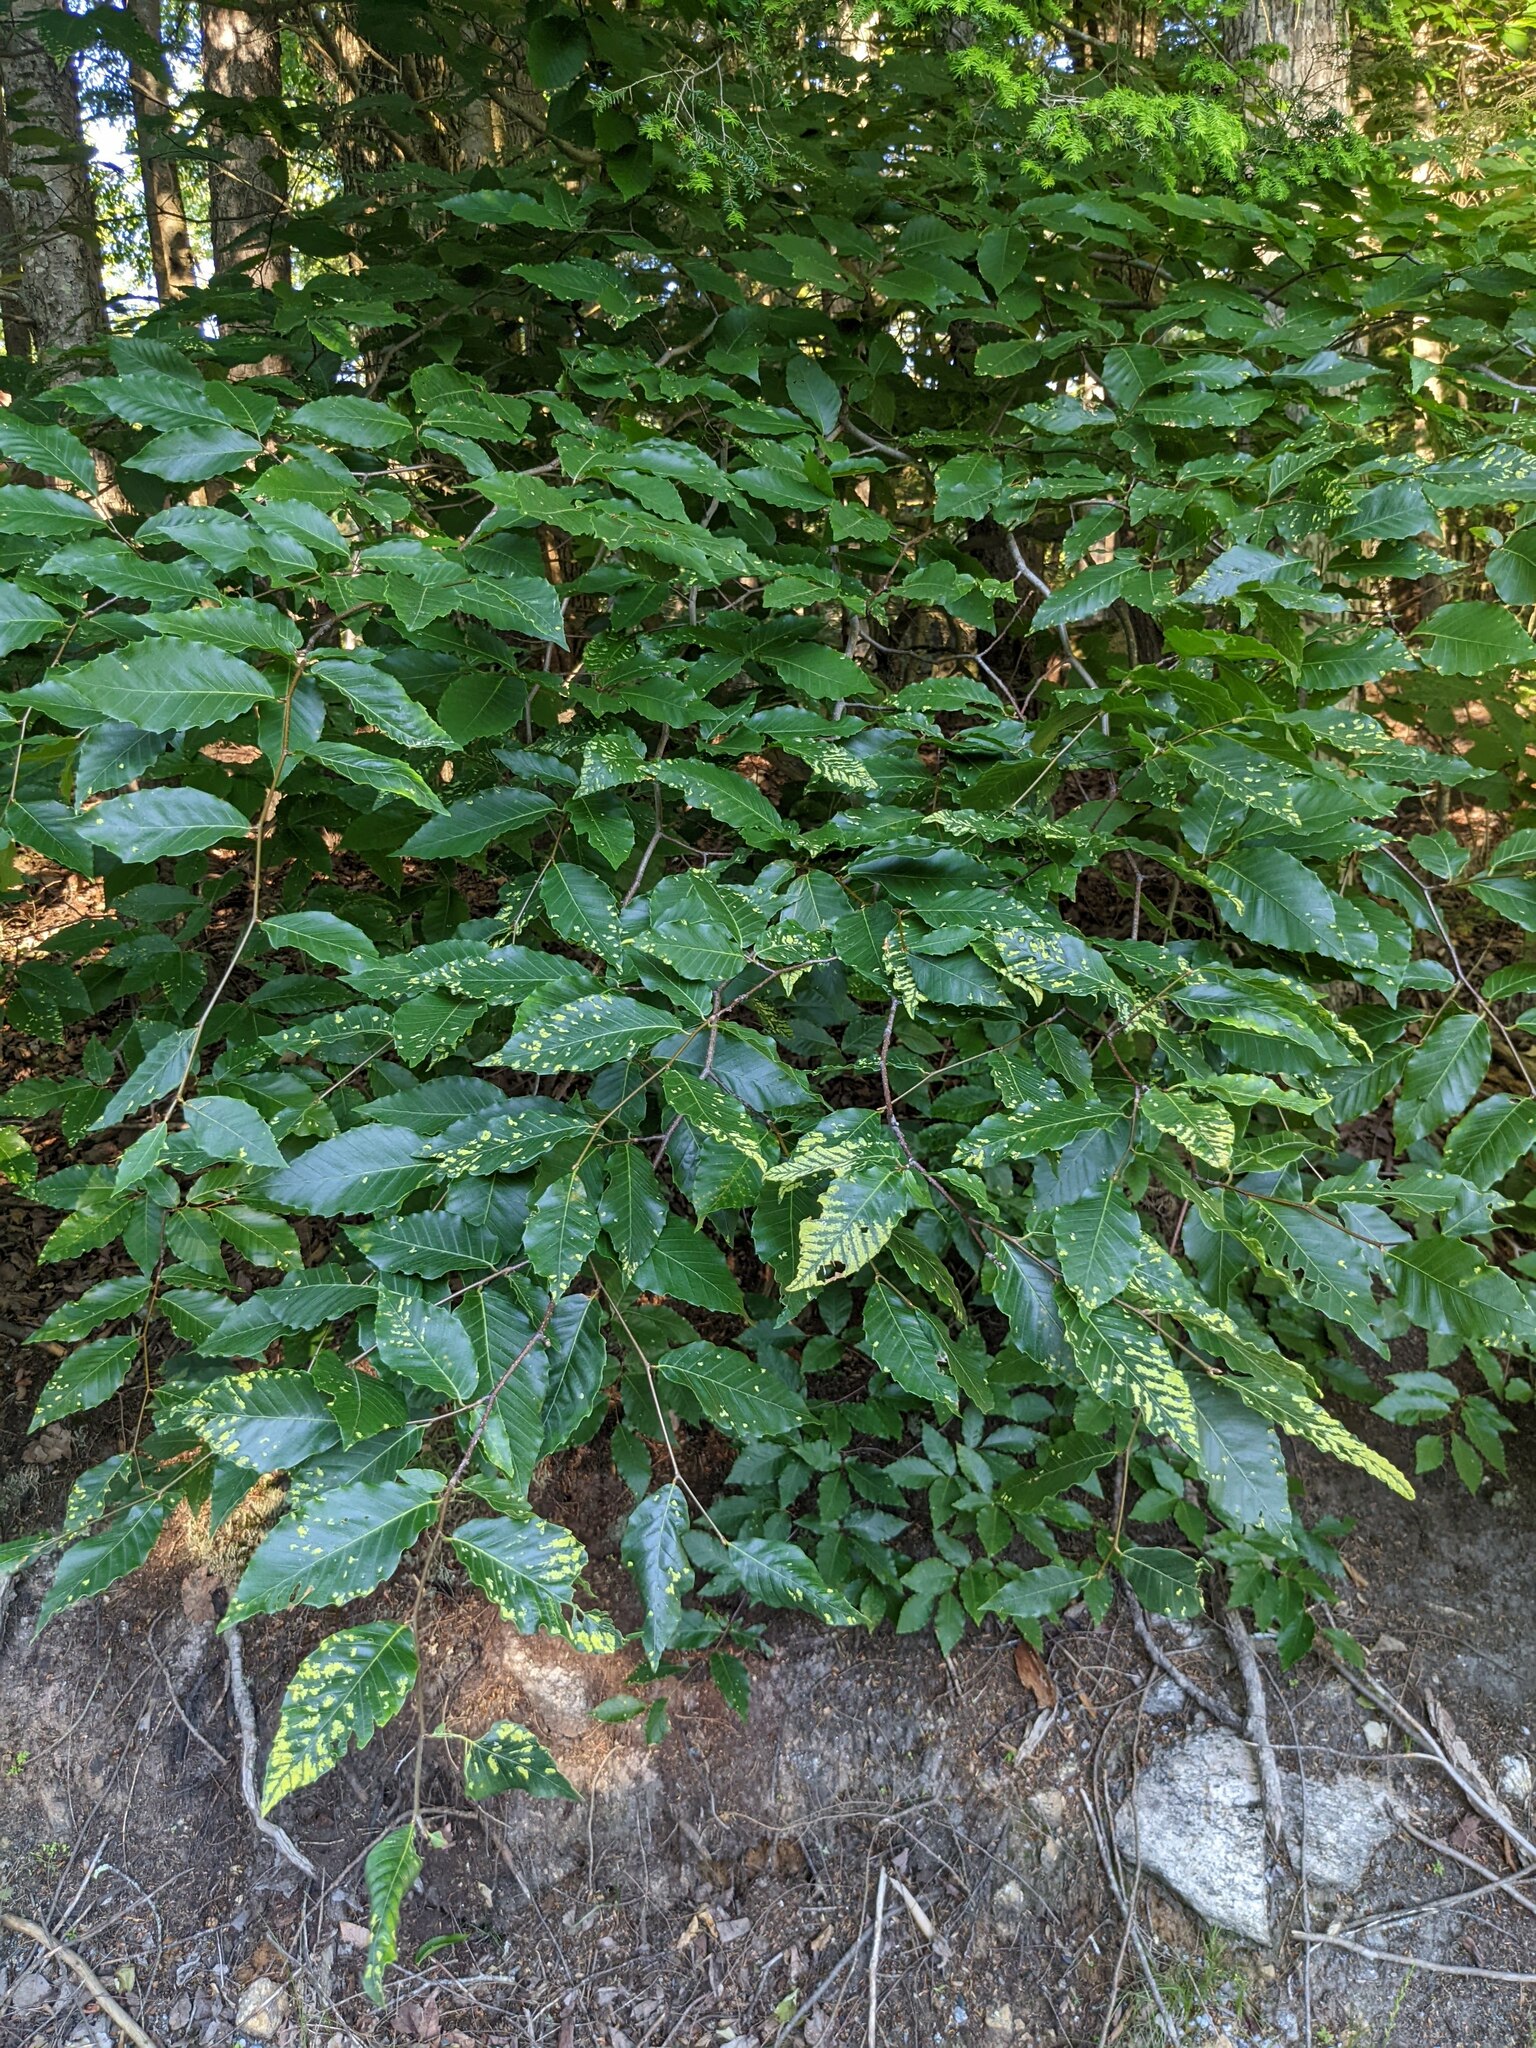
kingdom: Plantae
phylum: Tracheophyta
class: Magnoliopsida
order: Fagales
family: Fagaceae
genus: Fagus
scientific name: Fagus grandifolia
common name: American beech
